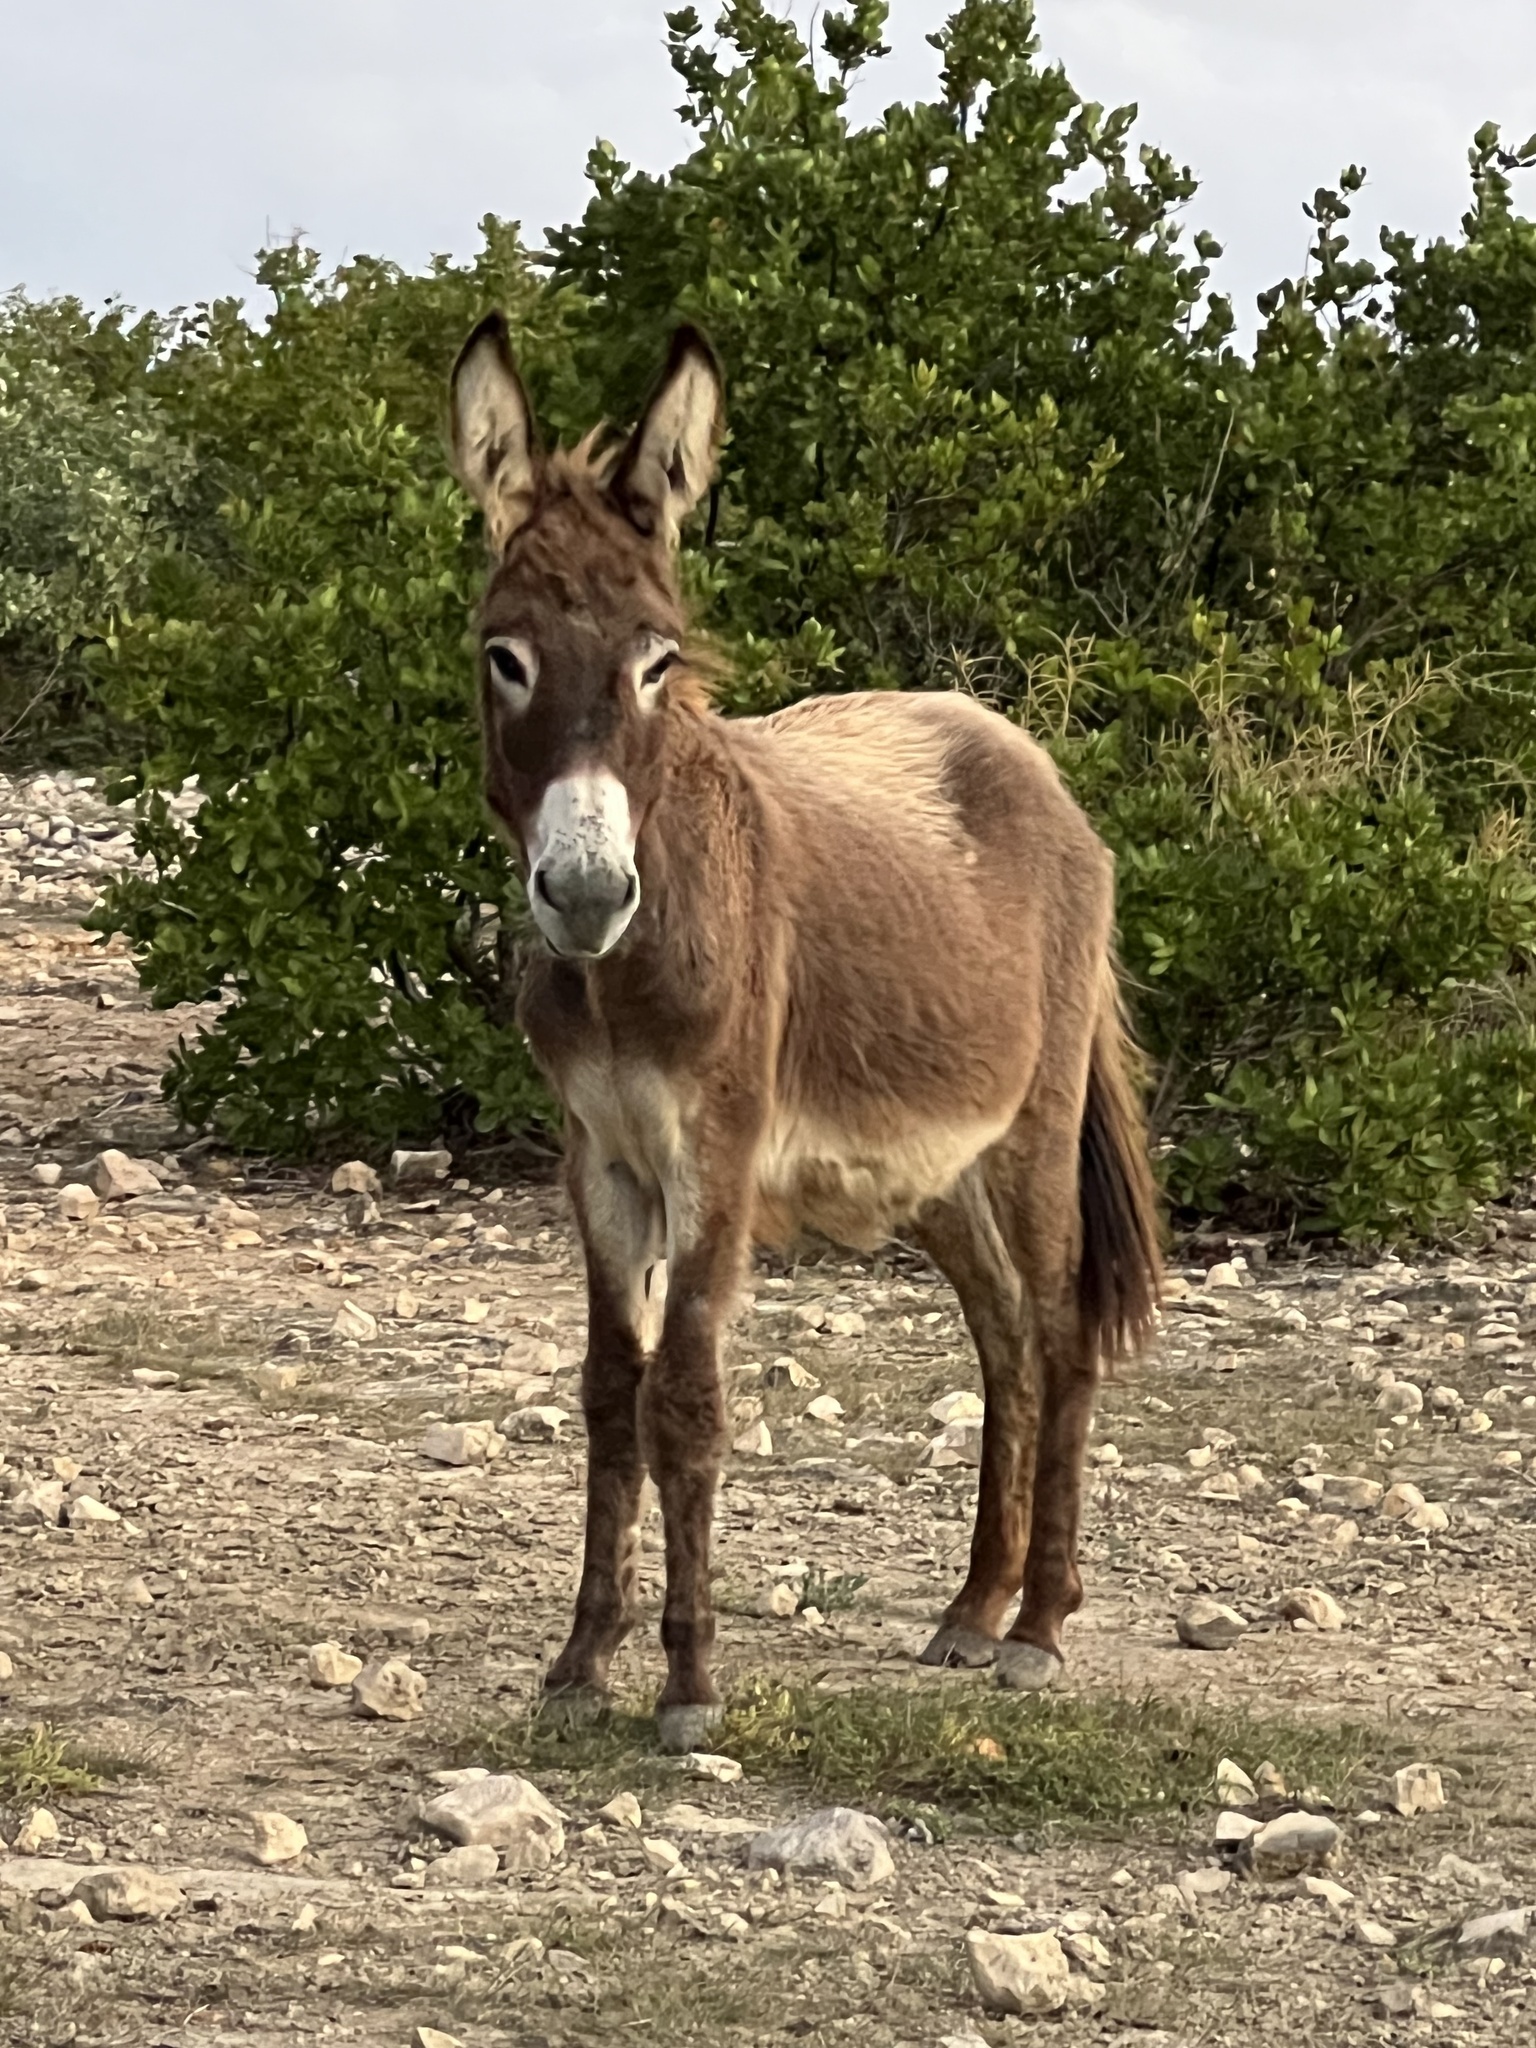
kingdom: Animalia
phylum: Chordata
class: Mammalia
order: Perissodactyla
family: Equidae
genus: Equus
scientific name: Equus asinus
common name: Ass
